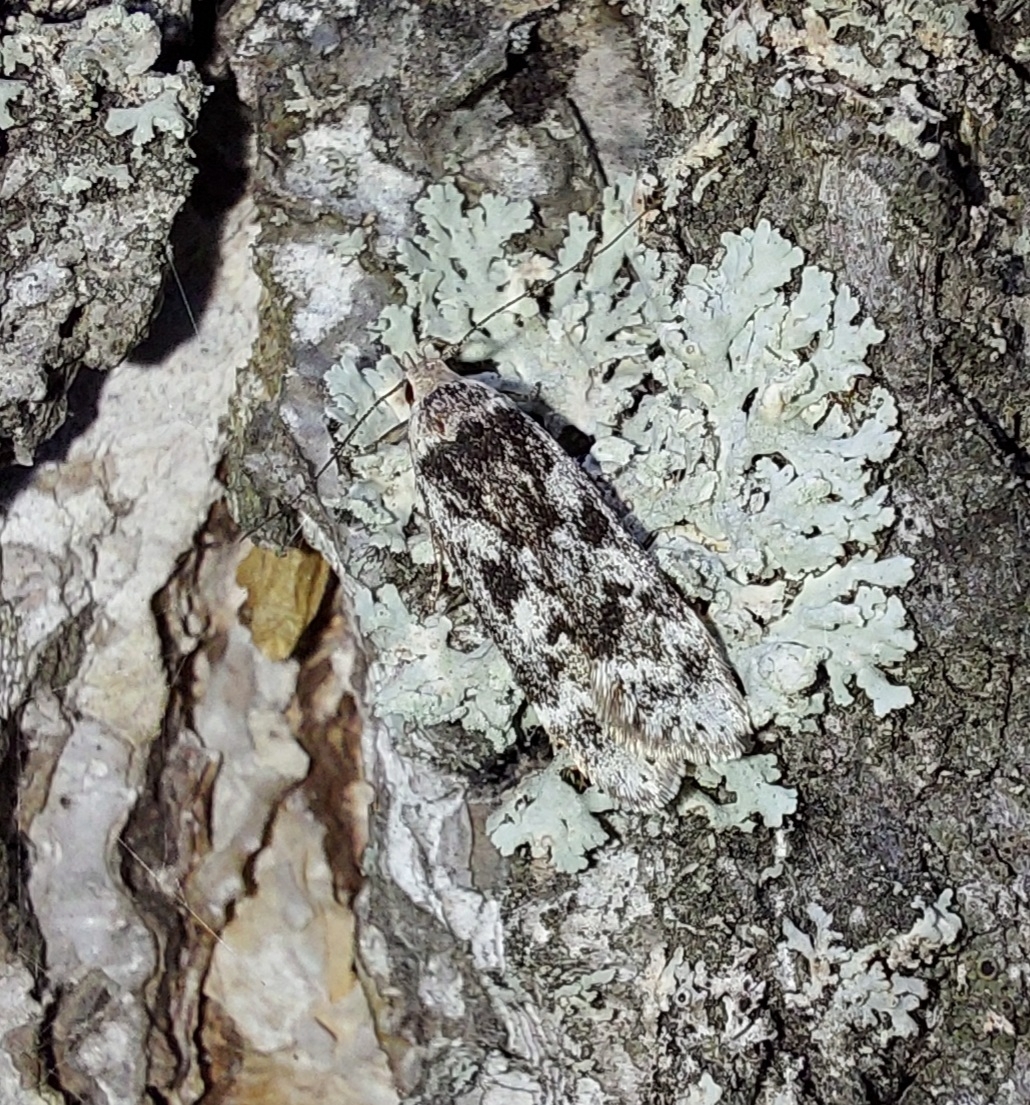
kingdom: Animalia
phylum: Arthropoda
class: Insecta
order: Lepidoptera
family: Gelechiidae
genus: Anacampsis
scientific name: Anacampsis blattariella
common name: Birch sober
